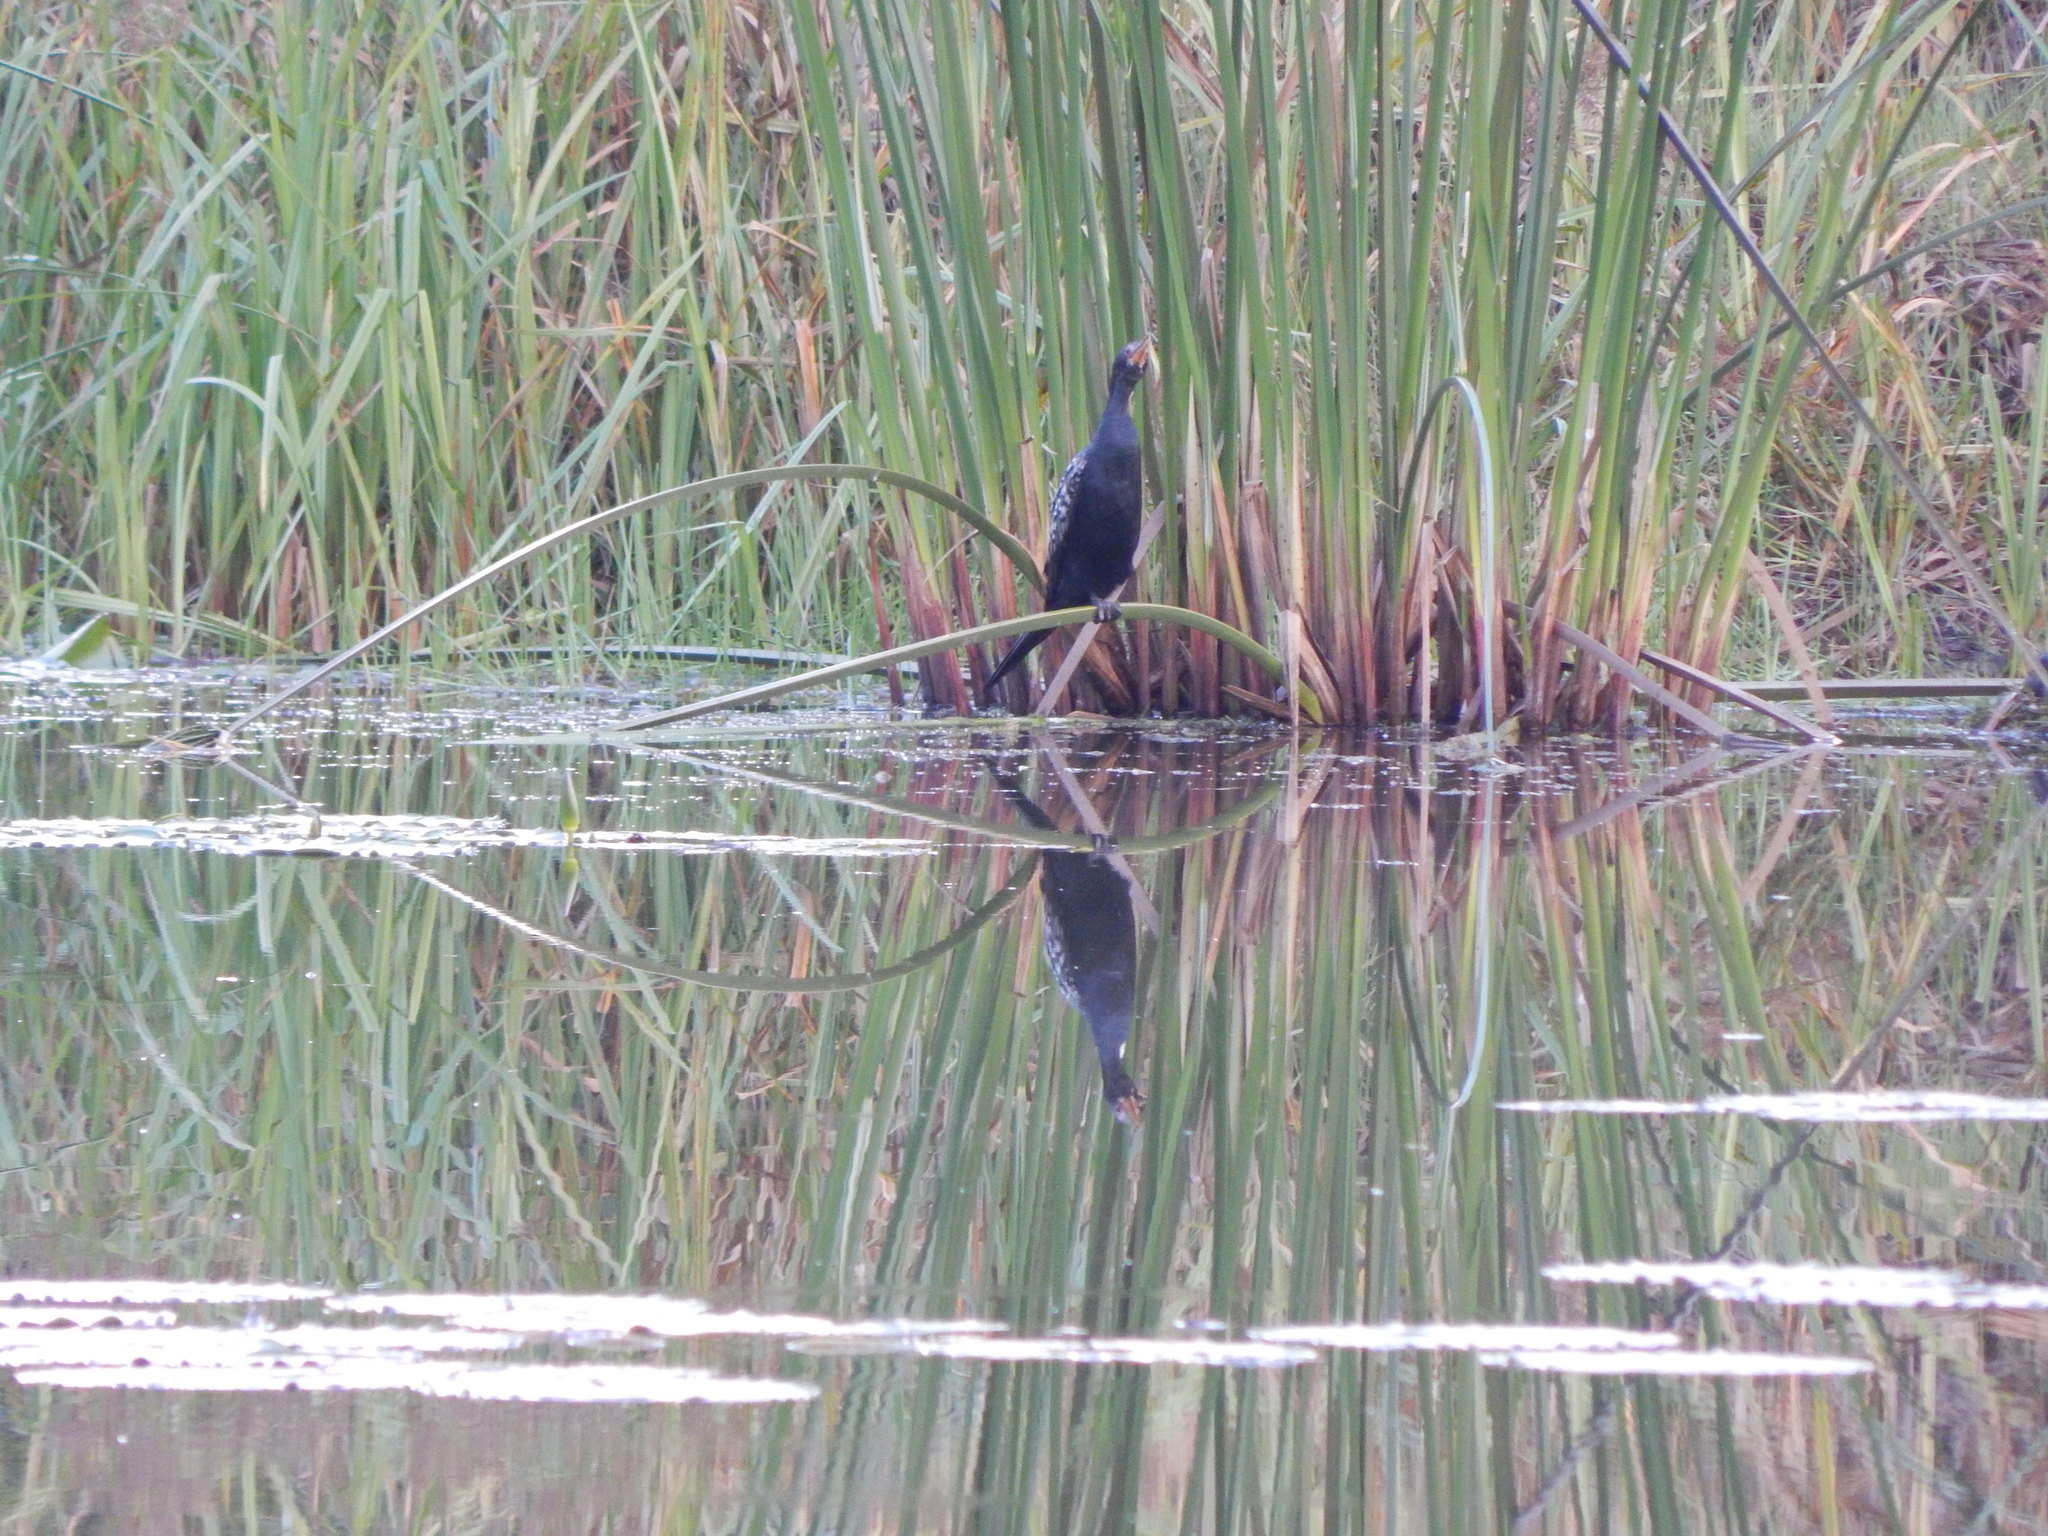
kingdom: Animalia
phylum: Chordata
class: Aves
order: Suliformes
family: Phalacrocoracidae
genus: Microcarbo
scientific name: Microcarbo africanus
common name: Long-tailed cormorant
